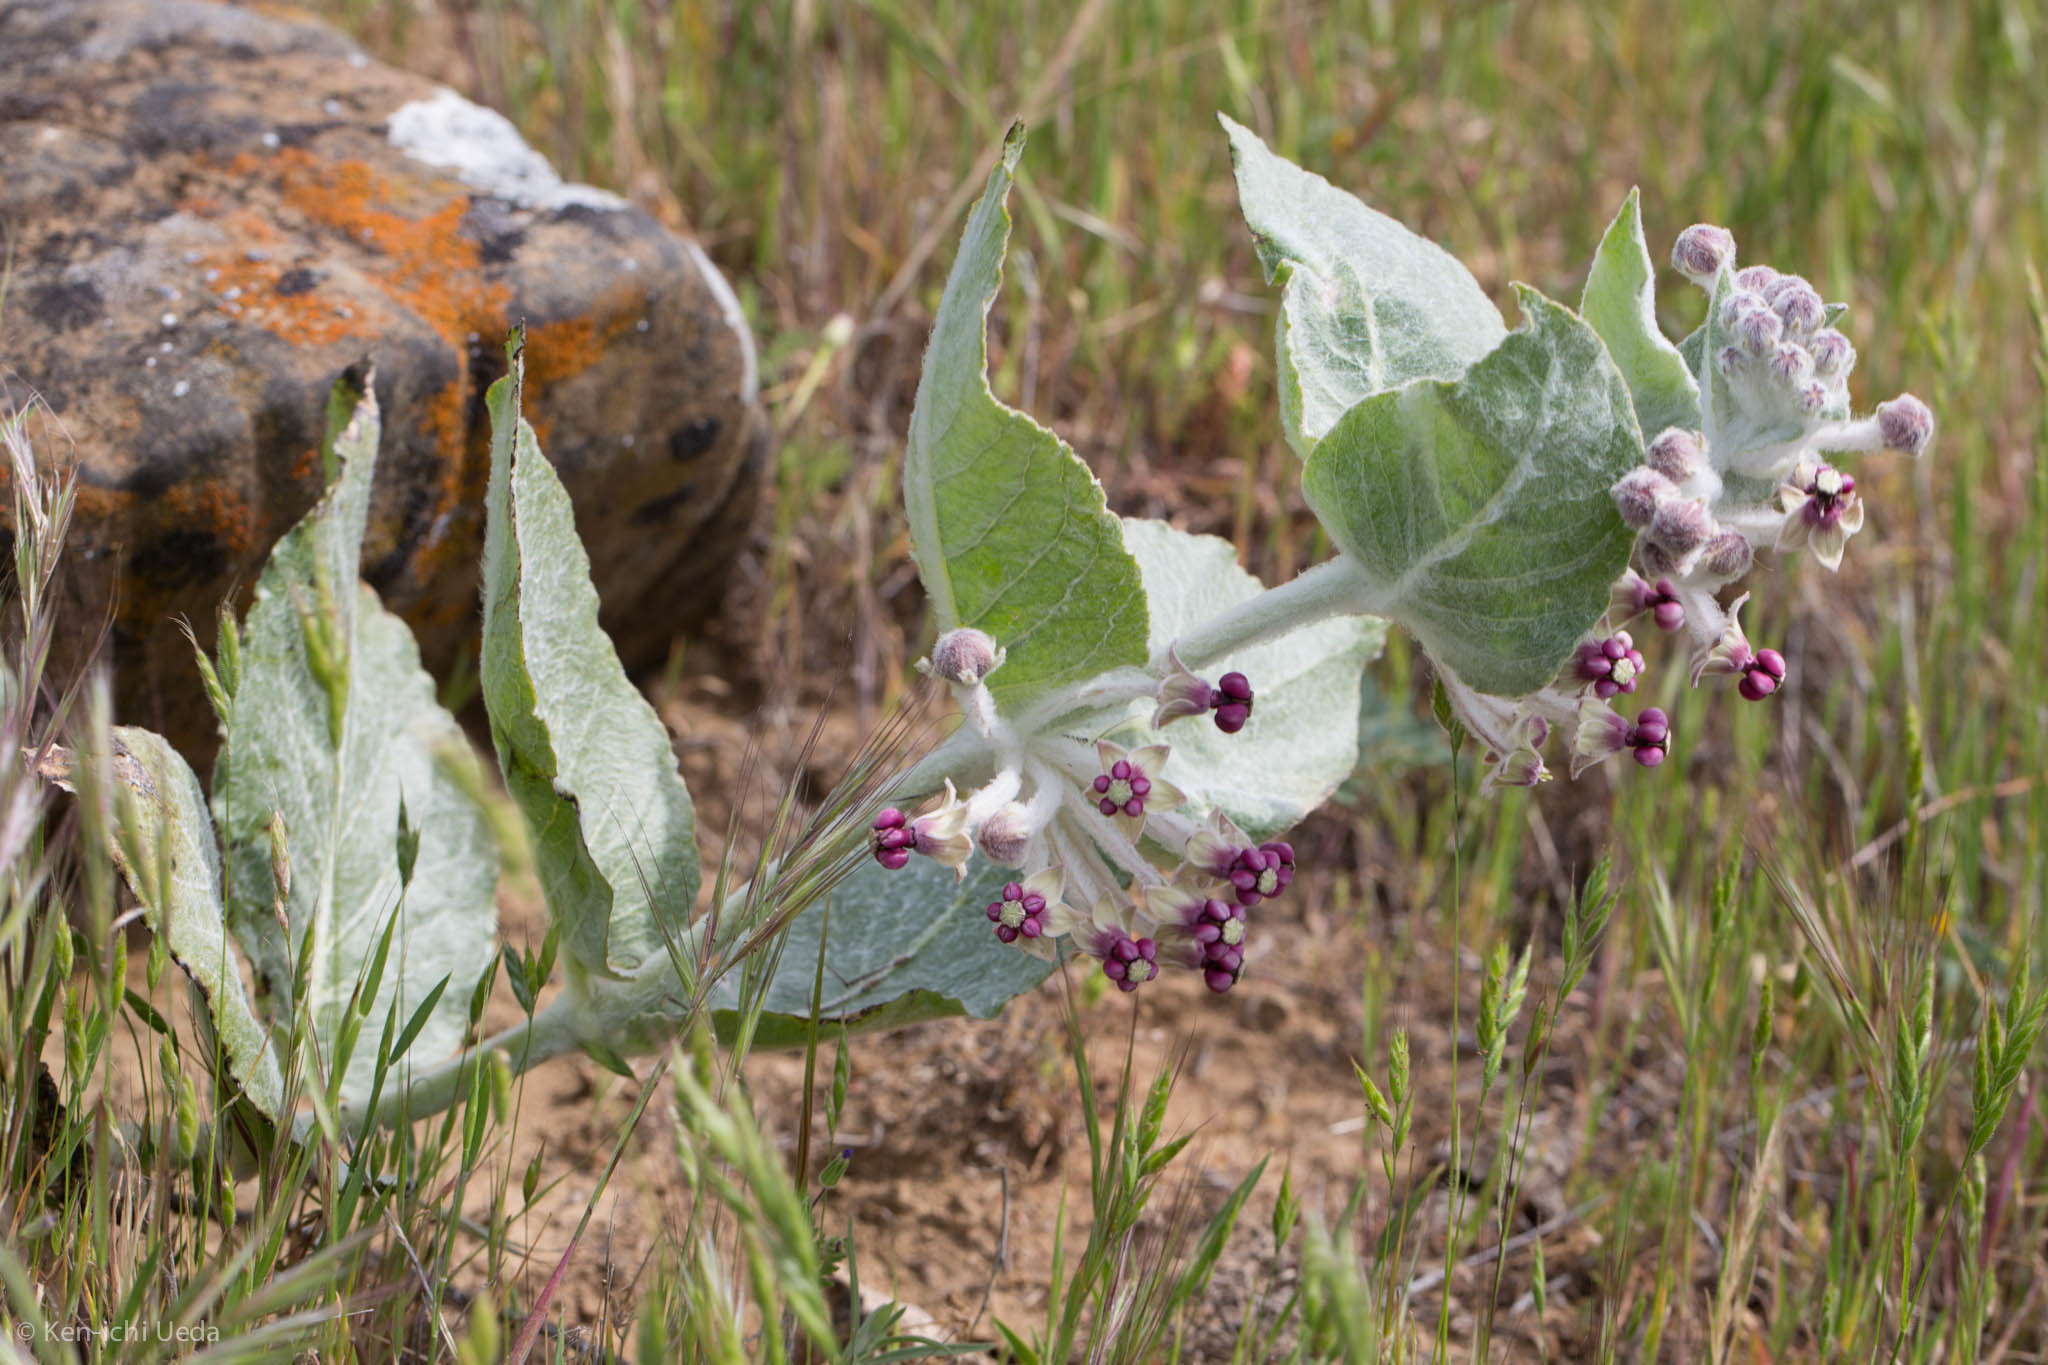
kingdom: Plantae
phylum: Tracheophyta
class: Magnoliopsida
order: Gentianales
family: Apocynaceae
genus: Asclepias
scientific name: Asclepias californica
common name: California milkweed
